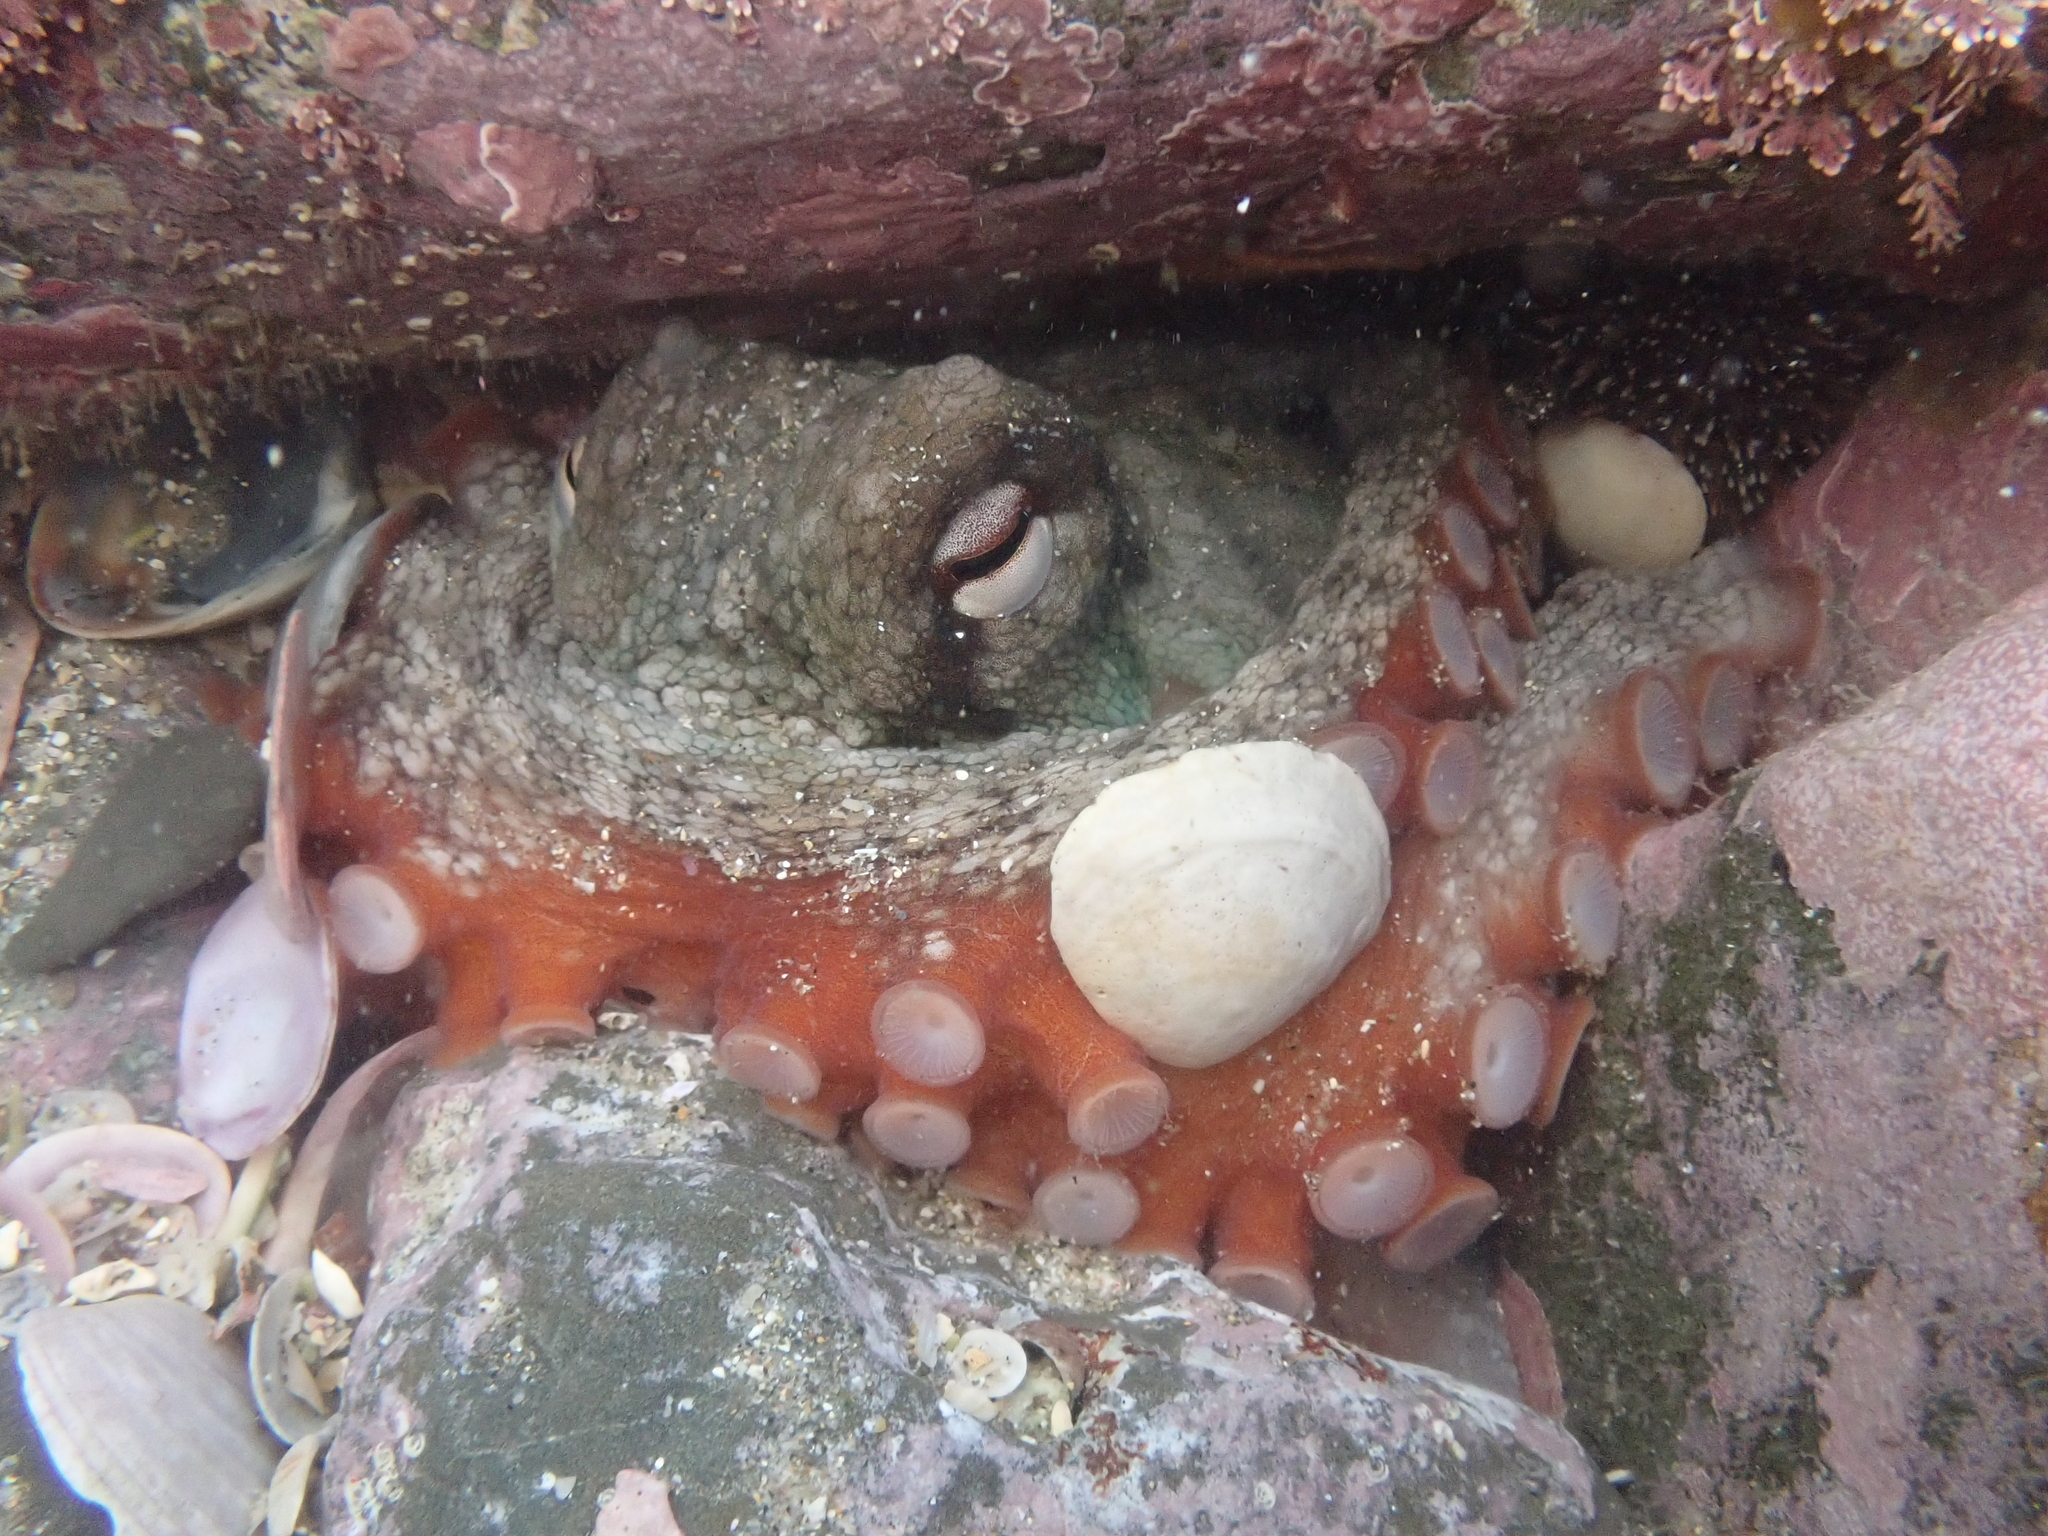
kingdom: Animalia
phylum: Mollusca
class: Cephalopoda
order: Octopoda
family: Octopodidae
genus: Octopus
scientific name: Octopus tetricus
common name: Sydney octopus
